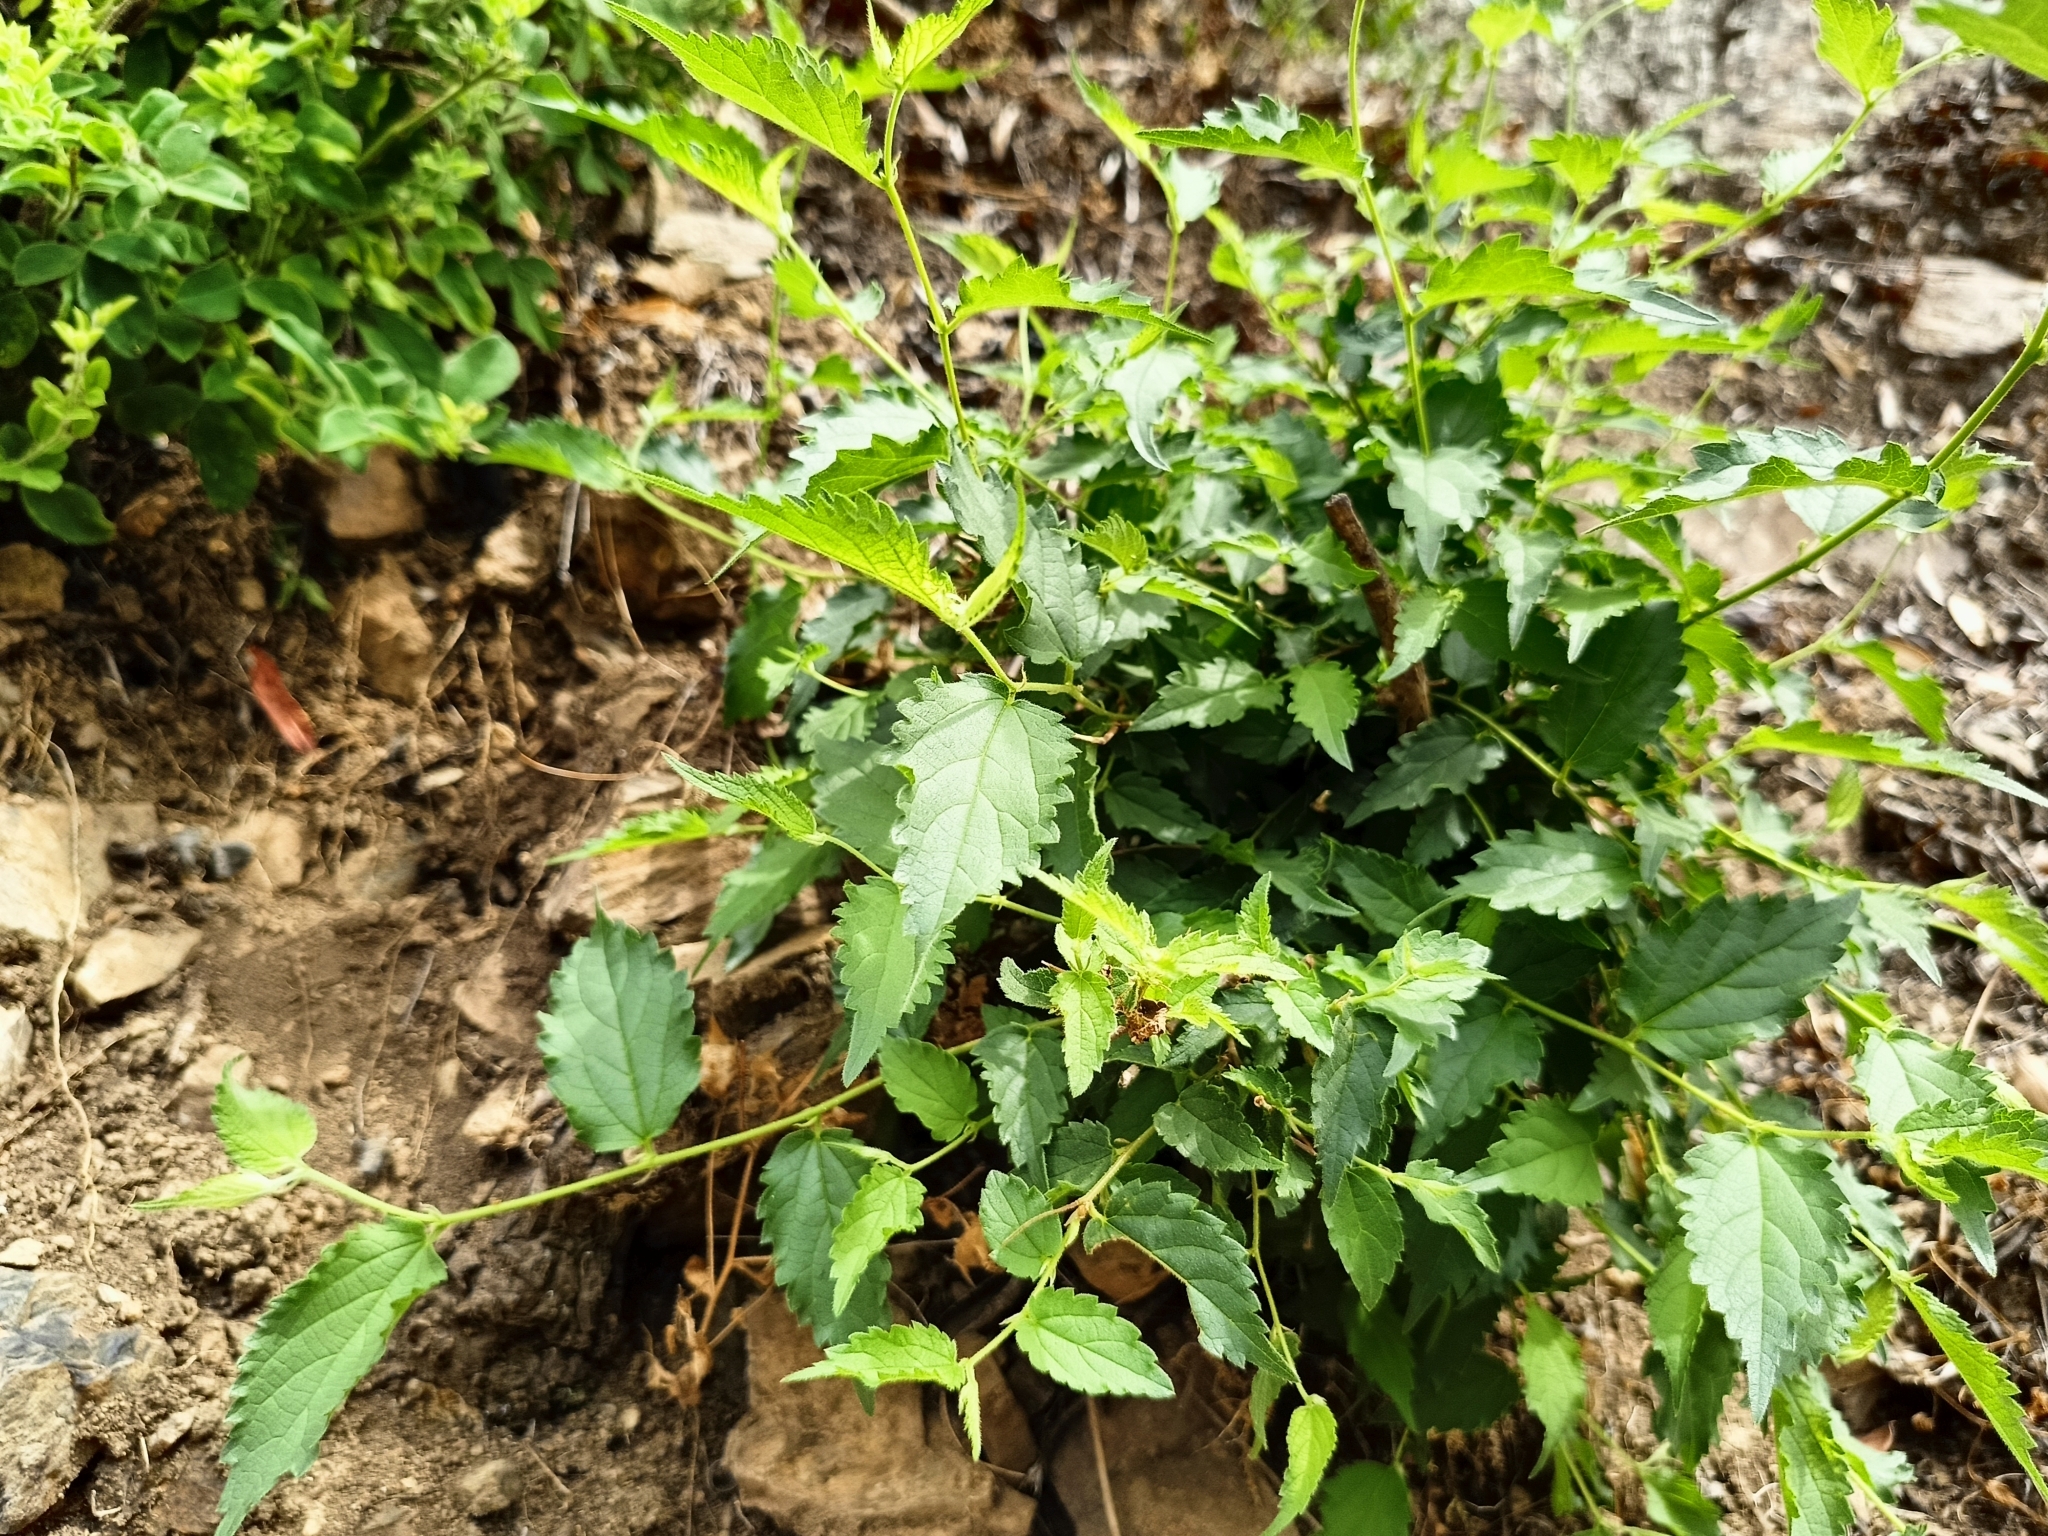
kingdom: Plantae
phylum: Tracheophyta
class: Magnoliopsida
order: Rosales
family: Cannabaceae
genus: Celtis
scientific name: Celtis australis
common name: European hackberry
